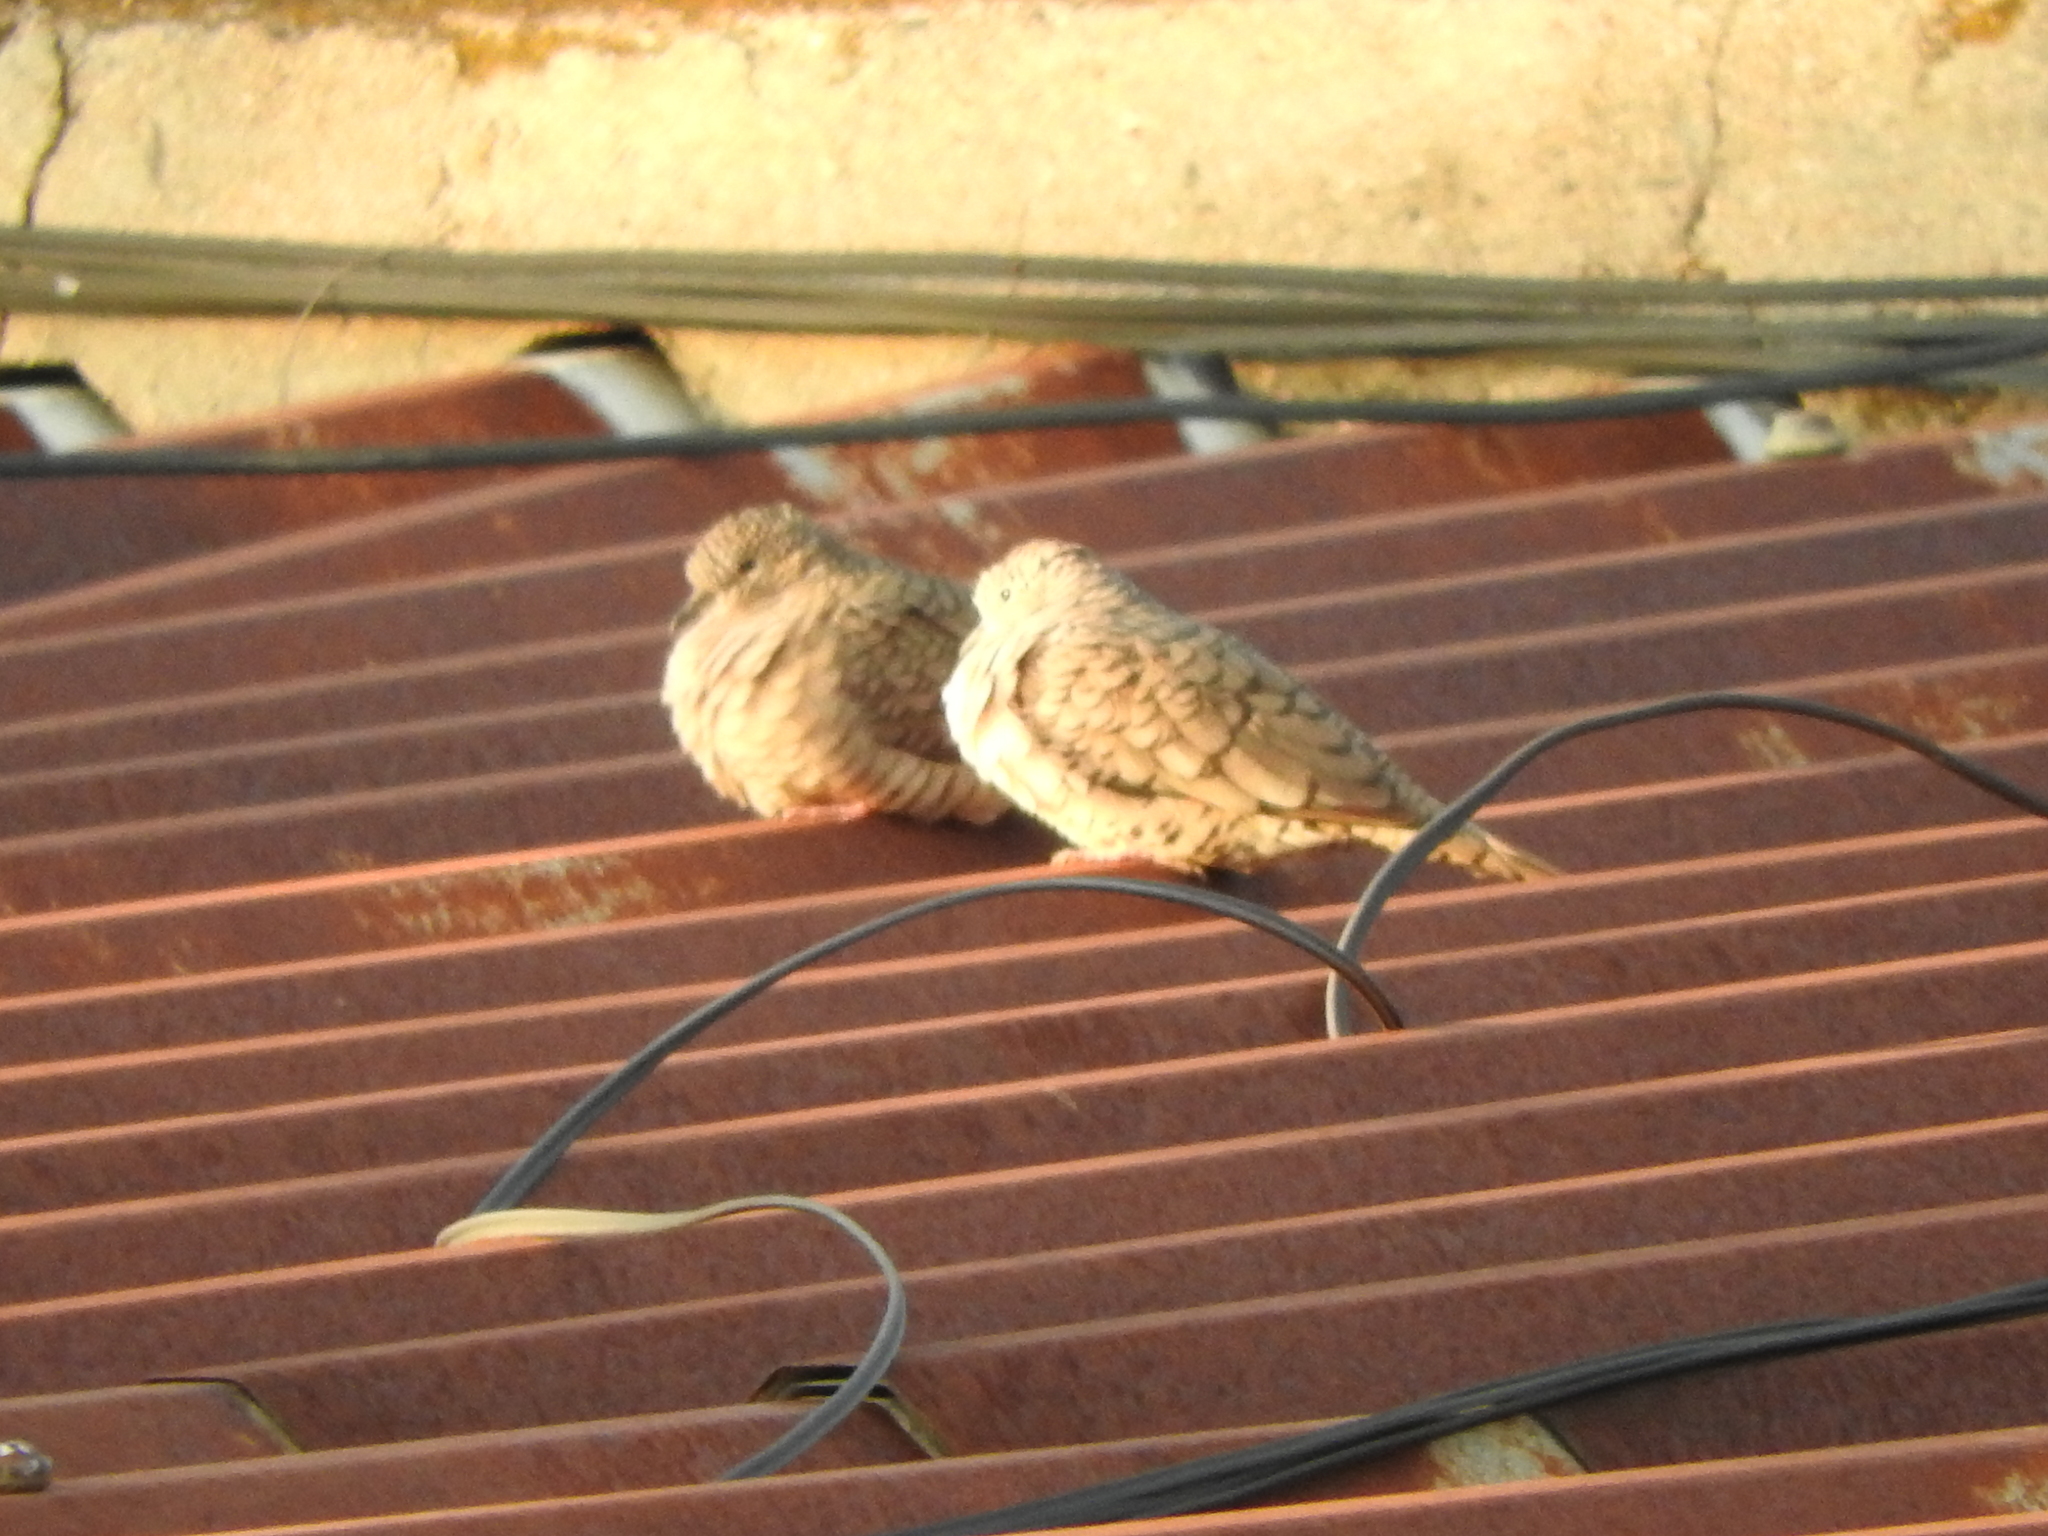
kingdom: Animalia
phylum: Chordata
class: Aves
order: Columbiformes
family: Columbidae
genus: Columbina
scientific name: Columbina inca
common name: Inca dove
